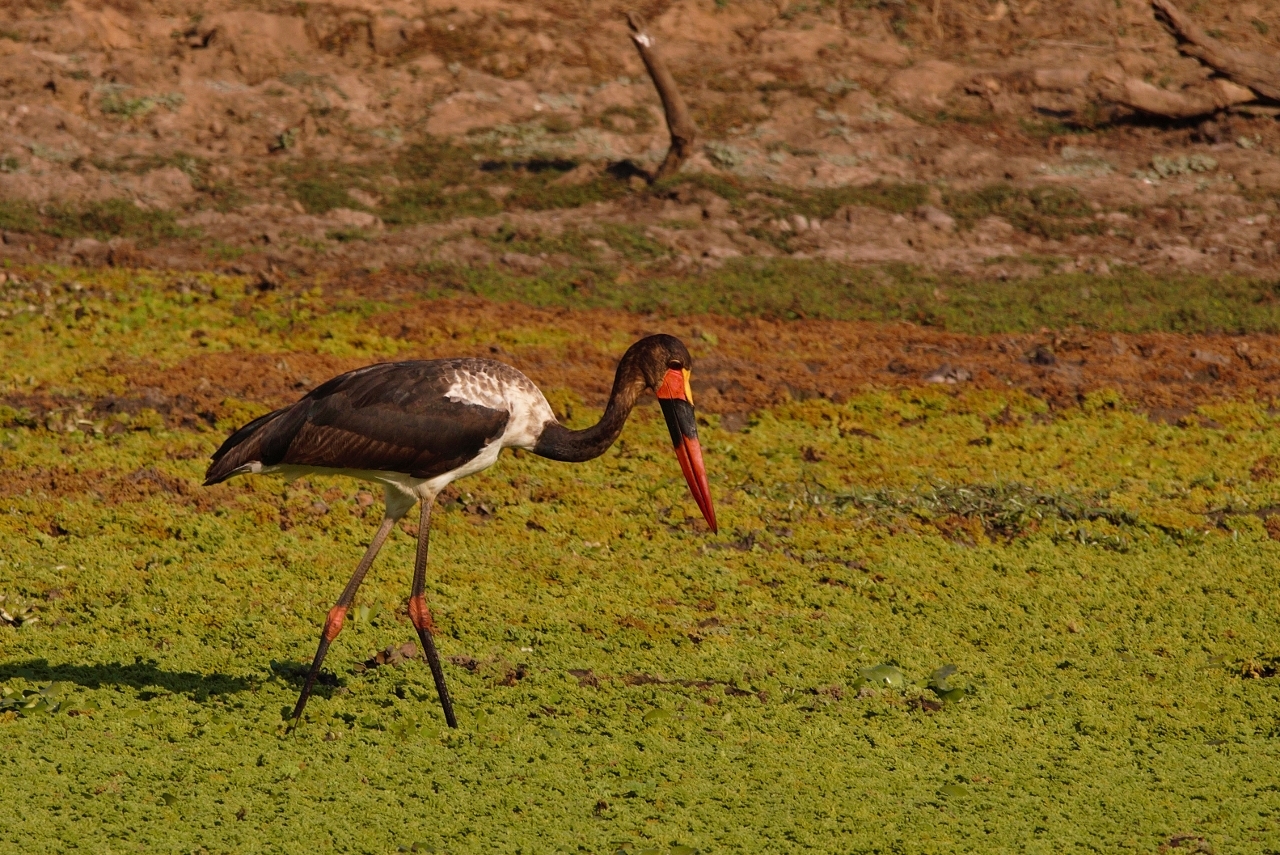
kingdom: Animalia
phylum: Chordata
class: Aves
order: Ciconiiformes
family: Ciconiidae
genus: Ephippiorhynchus
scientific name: Ephippiorhynchus senegalensis
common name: Saddle-billed stork
